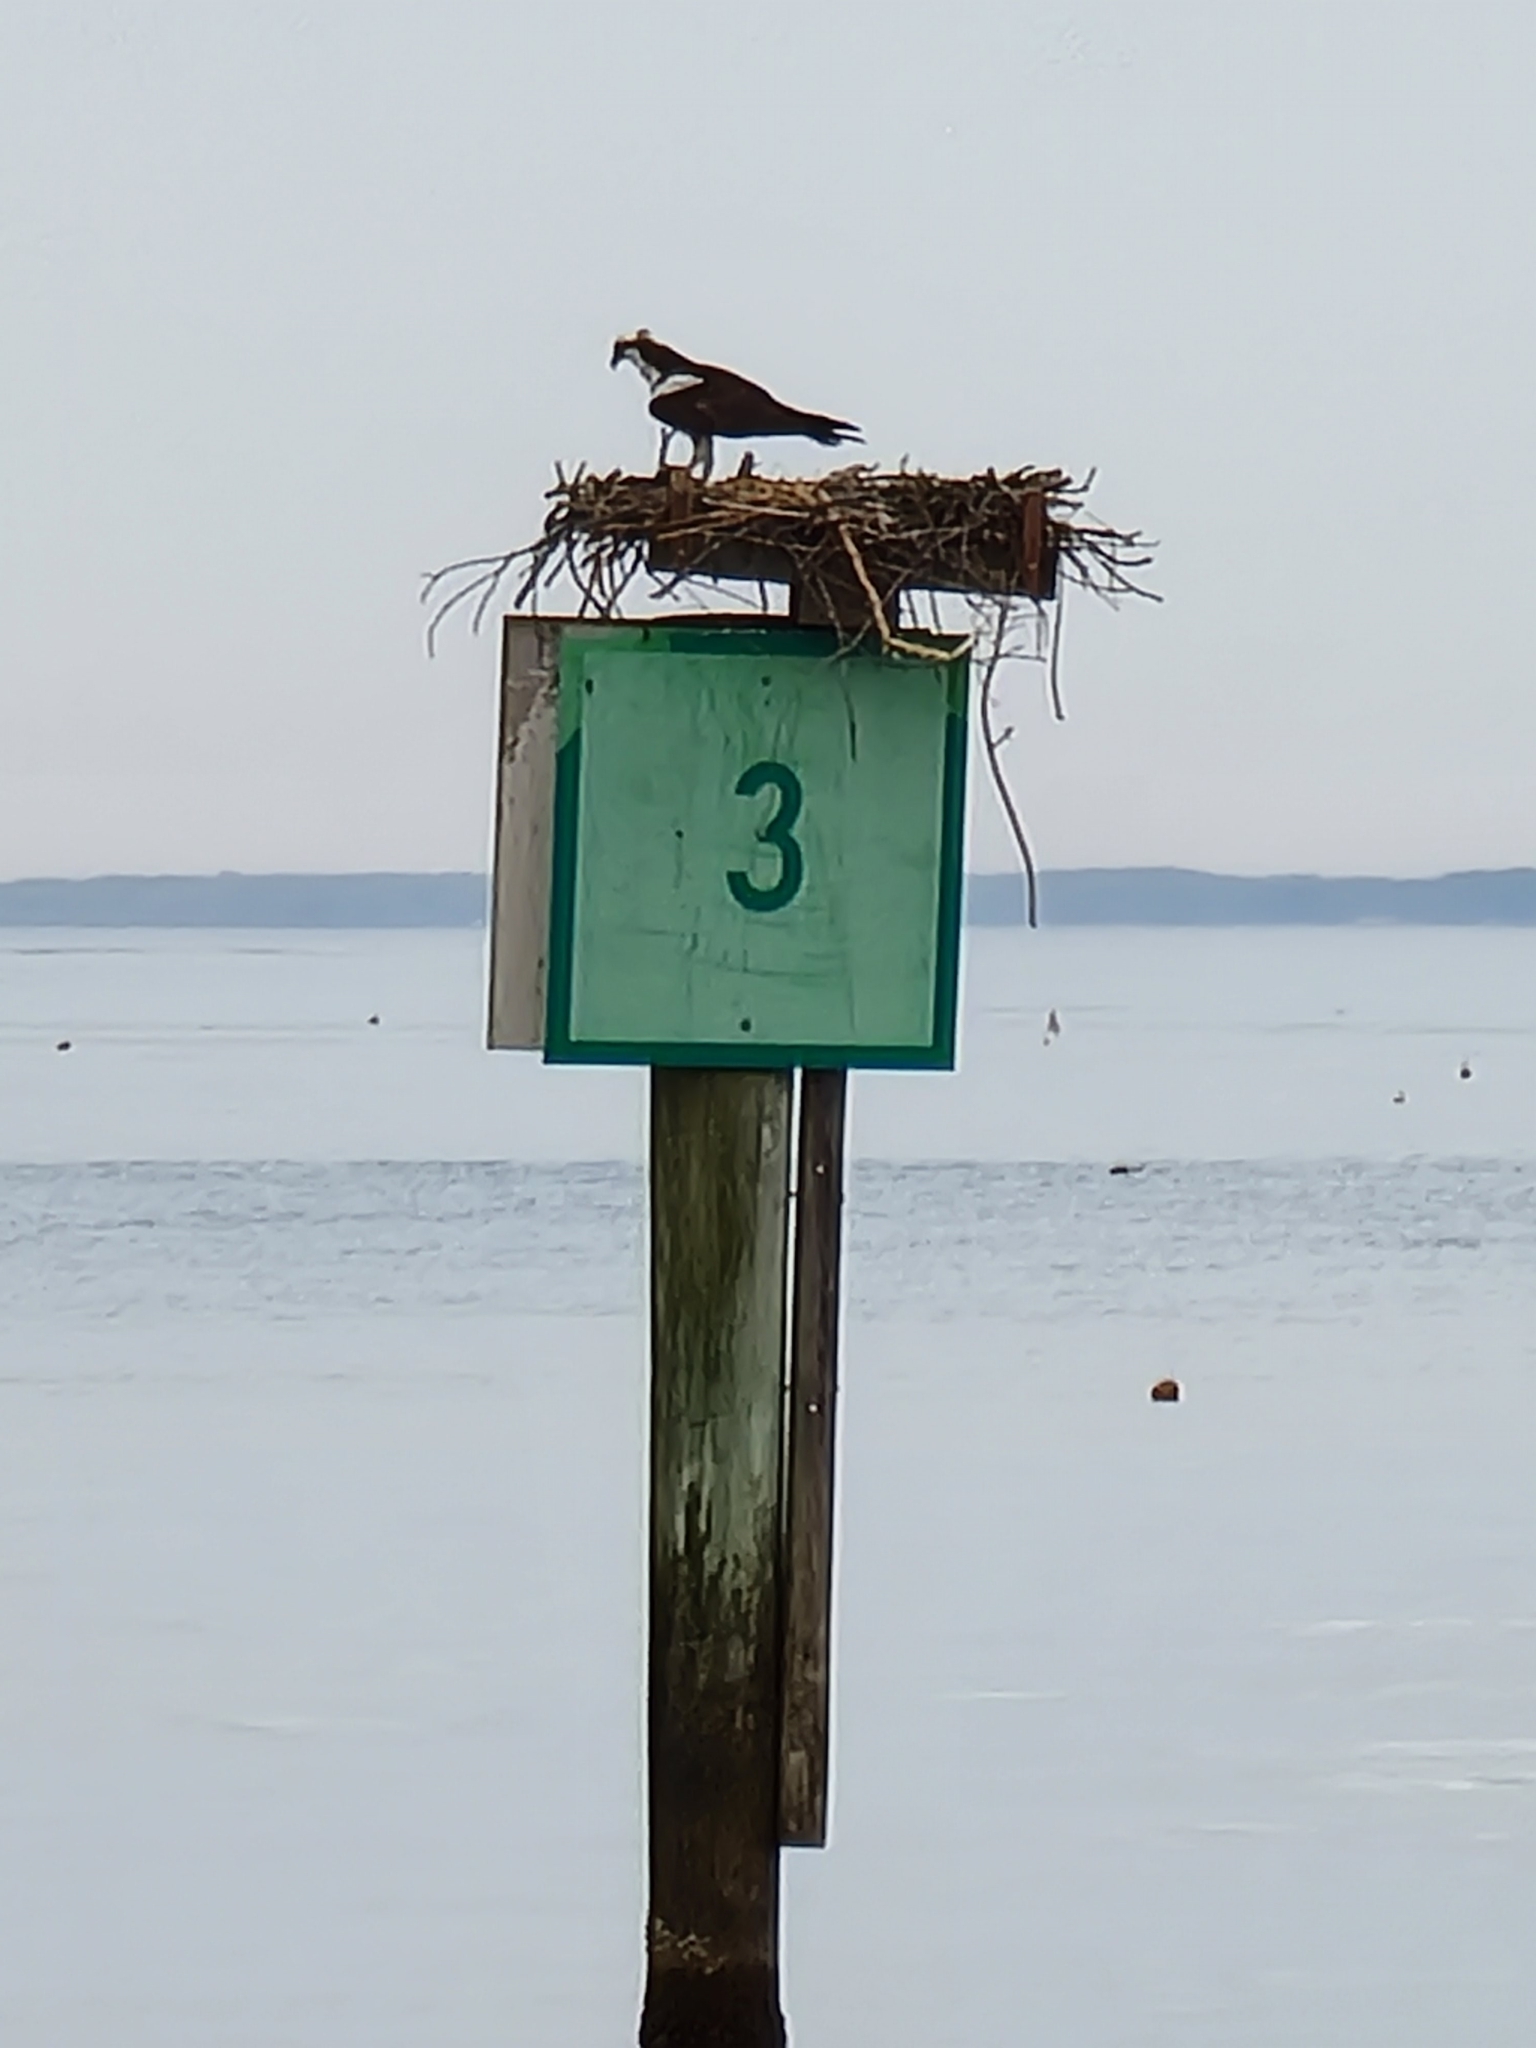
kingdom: Animalia
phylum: Chordata
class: Aves
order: Accipitriformes
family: Pandionidae
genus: Pandion
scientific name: Pandion haliaetus
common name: Osprey
